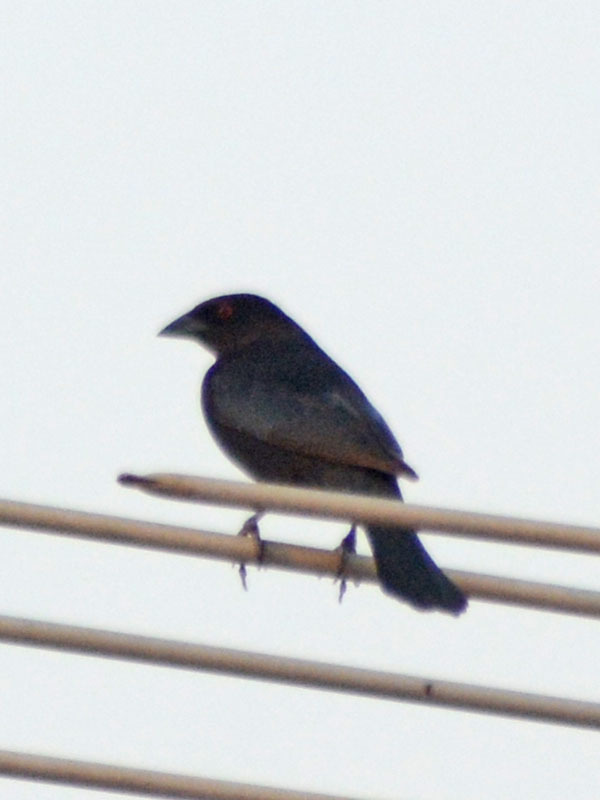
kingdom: Animalia
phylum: Chordata
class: Aves
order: Passeriformes
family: Icteridae
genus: Molothrus
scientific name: Molothrus aeneus
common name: Bronzed cowbird
